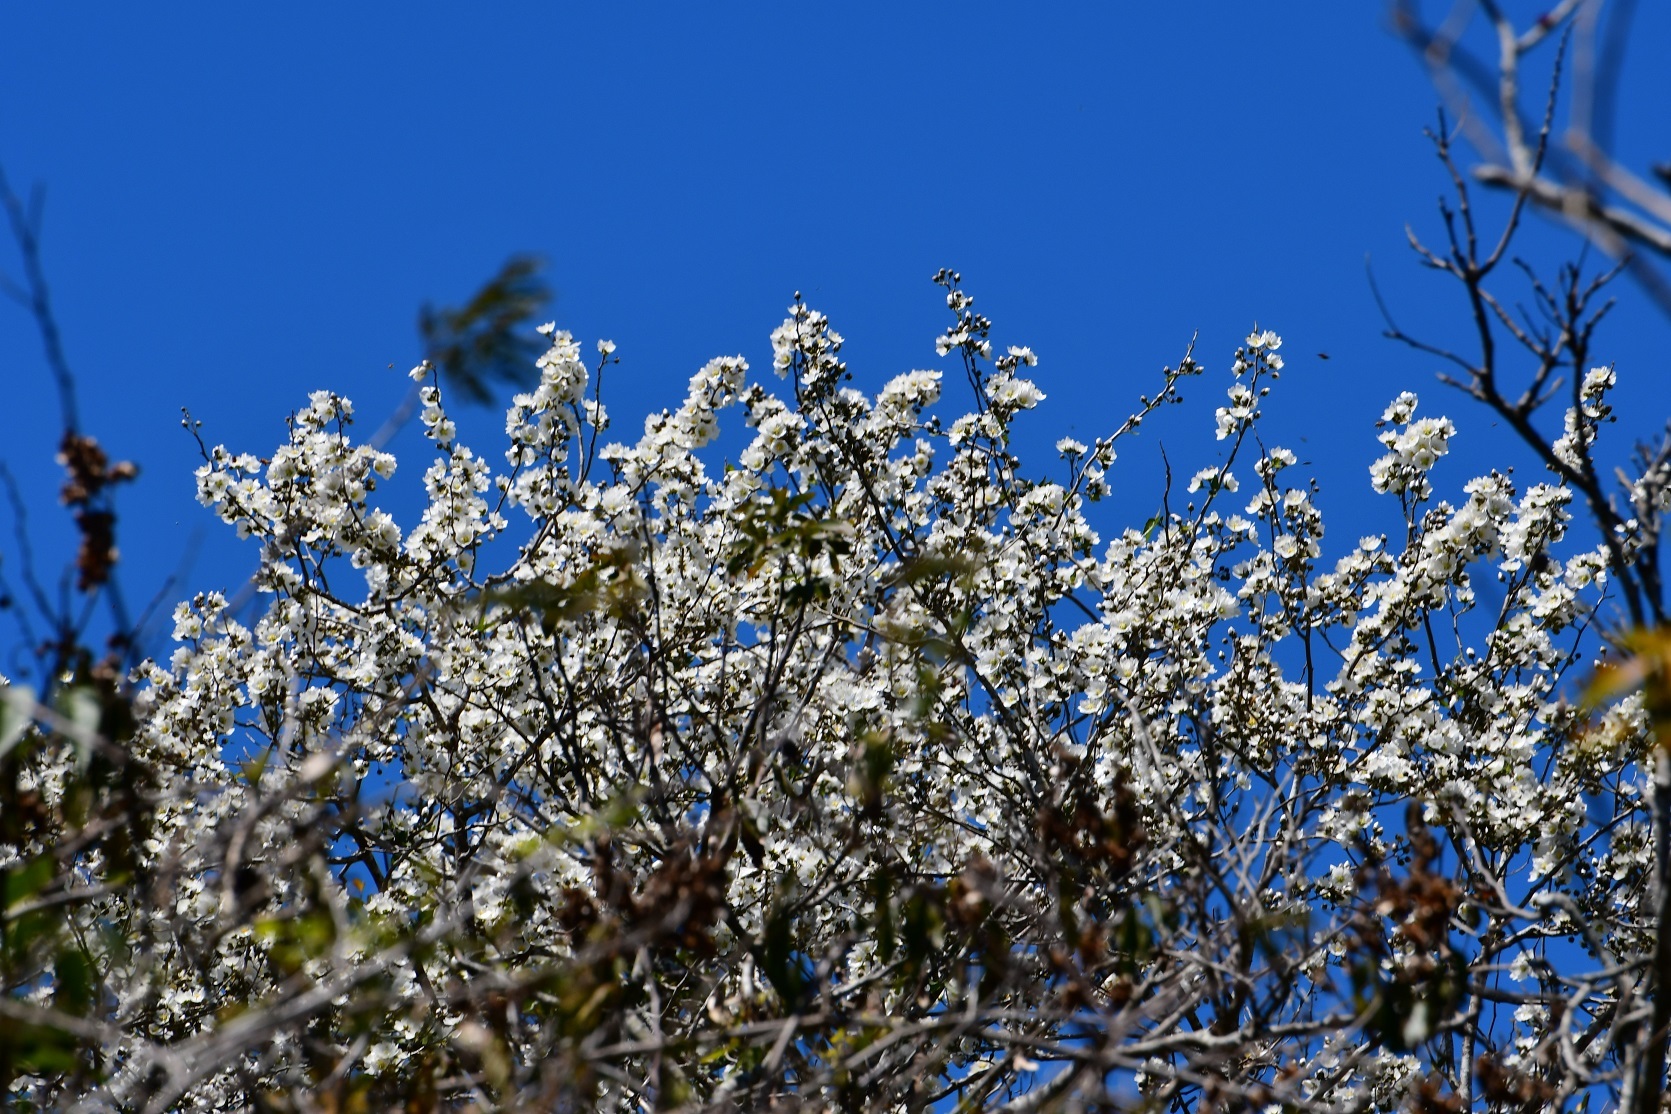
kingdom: Plantae
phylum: Tracheophyta
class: Magnoliopsida
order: Malvales
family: Malvaceae
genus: Robinsonella
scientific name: Robinsonella glabrifolia
